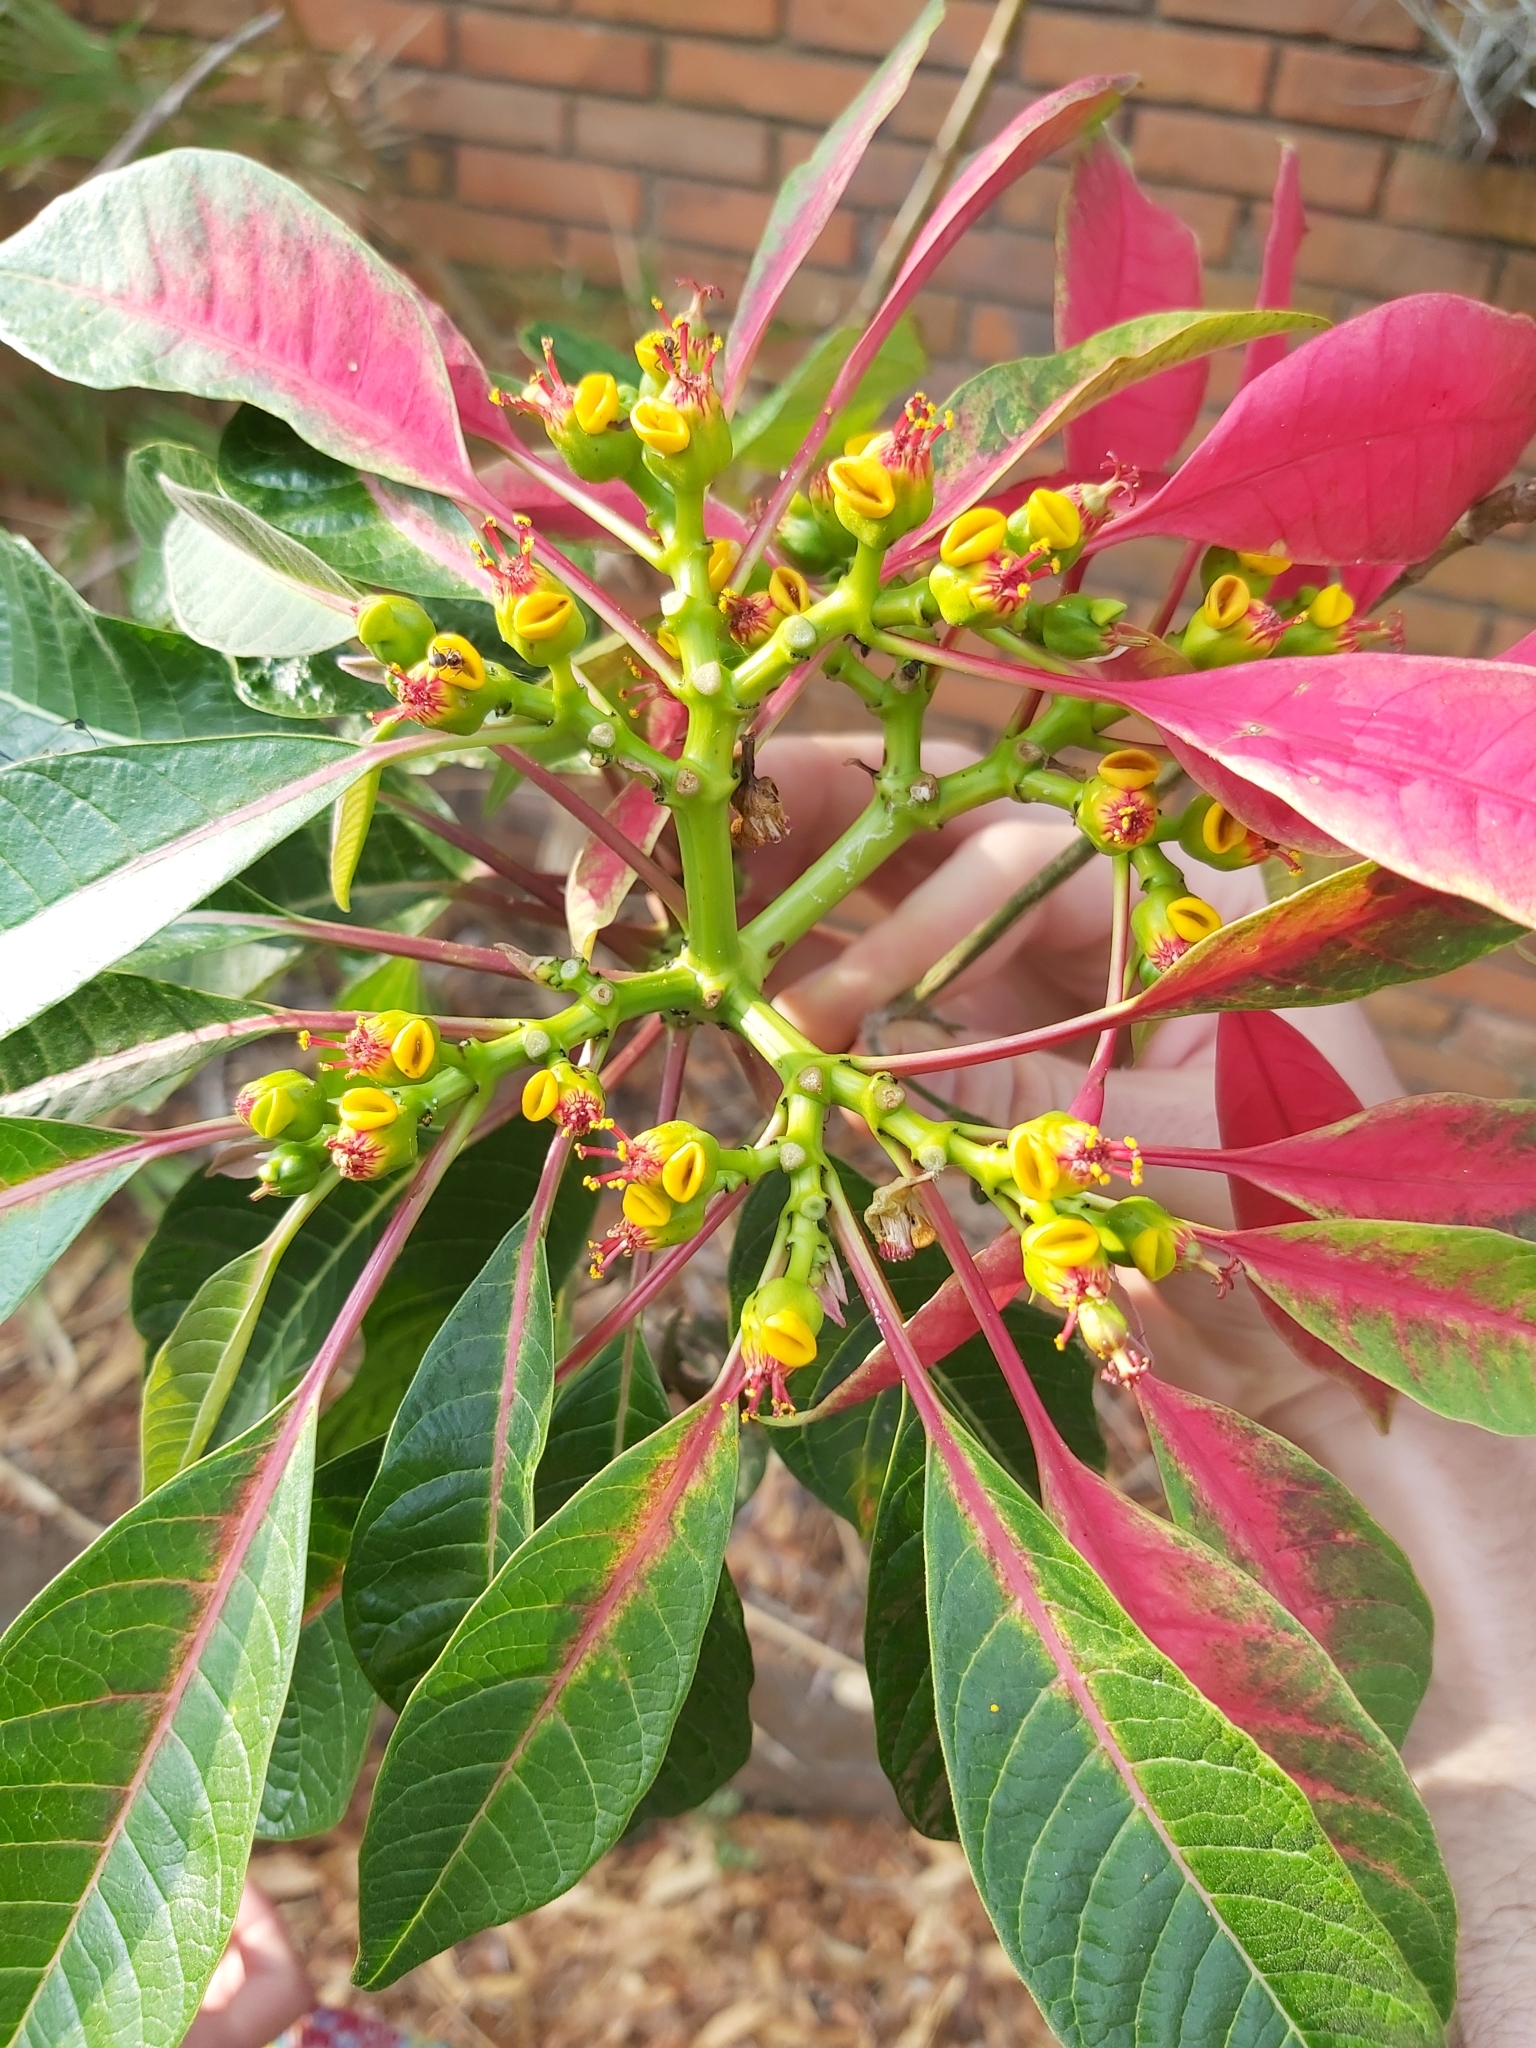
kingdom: Plantae
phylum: Tracheophyta
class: Magnoliopsida
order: Malpighiales
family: Euphorbiaceae
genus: Euphorbia
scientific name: Euphorbia pulcherrima
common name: Christmas-flower
